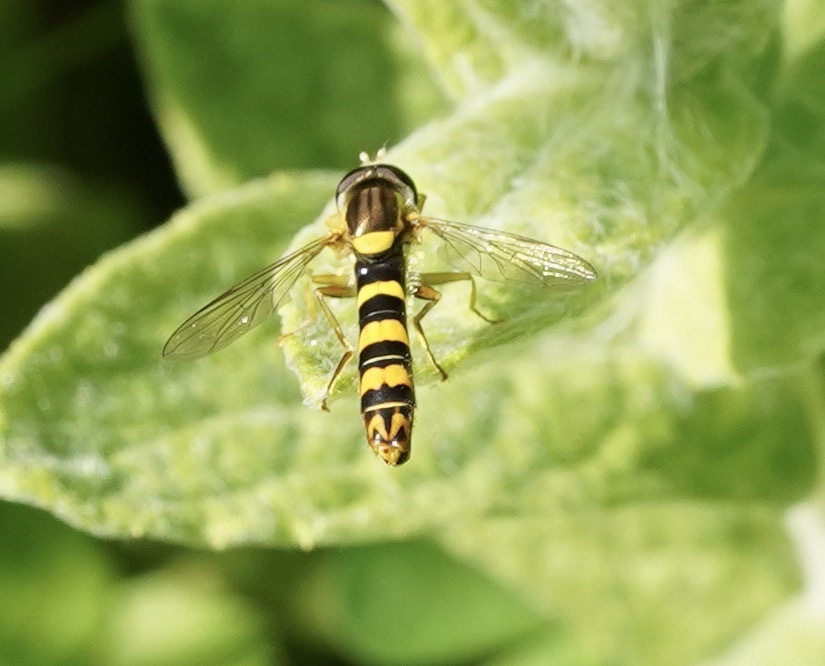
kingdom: Animalia
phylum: Arthropoda
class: Insecta
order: Diptera
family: Syrphidae
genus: Sphaerophoria
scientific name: Sphaerophoria scripta
